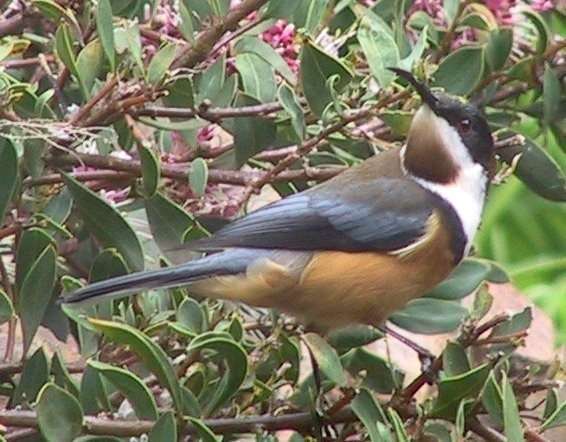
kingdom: Animalia
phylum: Chordata
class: Aves
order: Passeriformes
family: Meliphagidae
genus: Acanthorhynchus
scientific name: Acanthorhynchus tenuirostris
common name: Eastern spinebill
